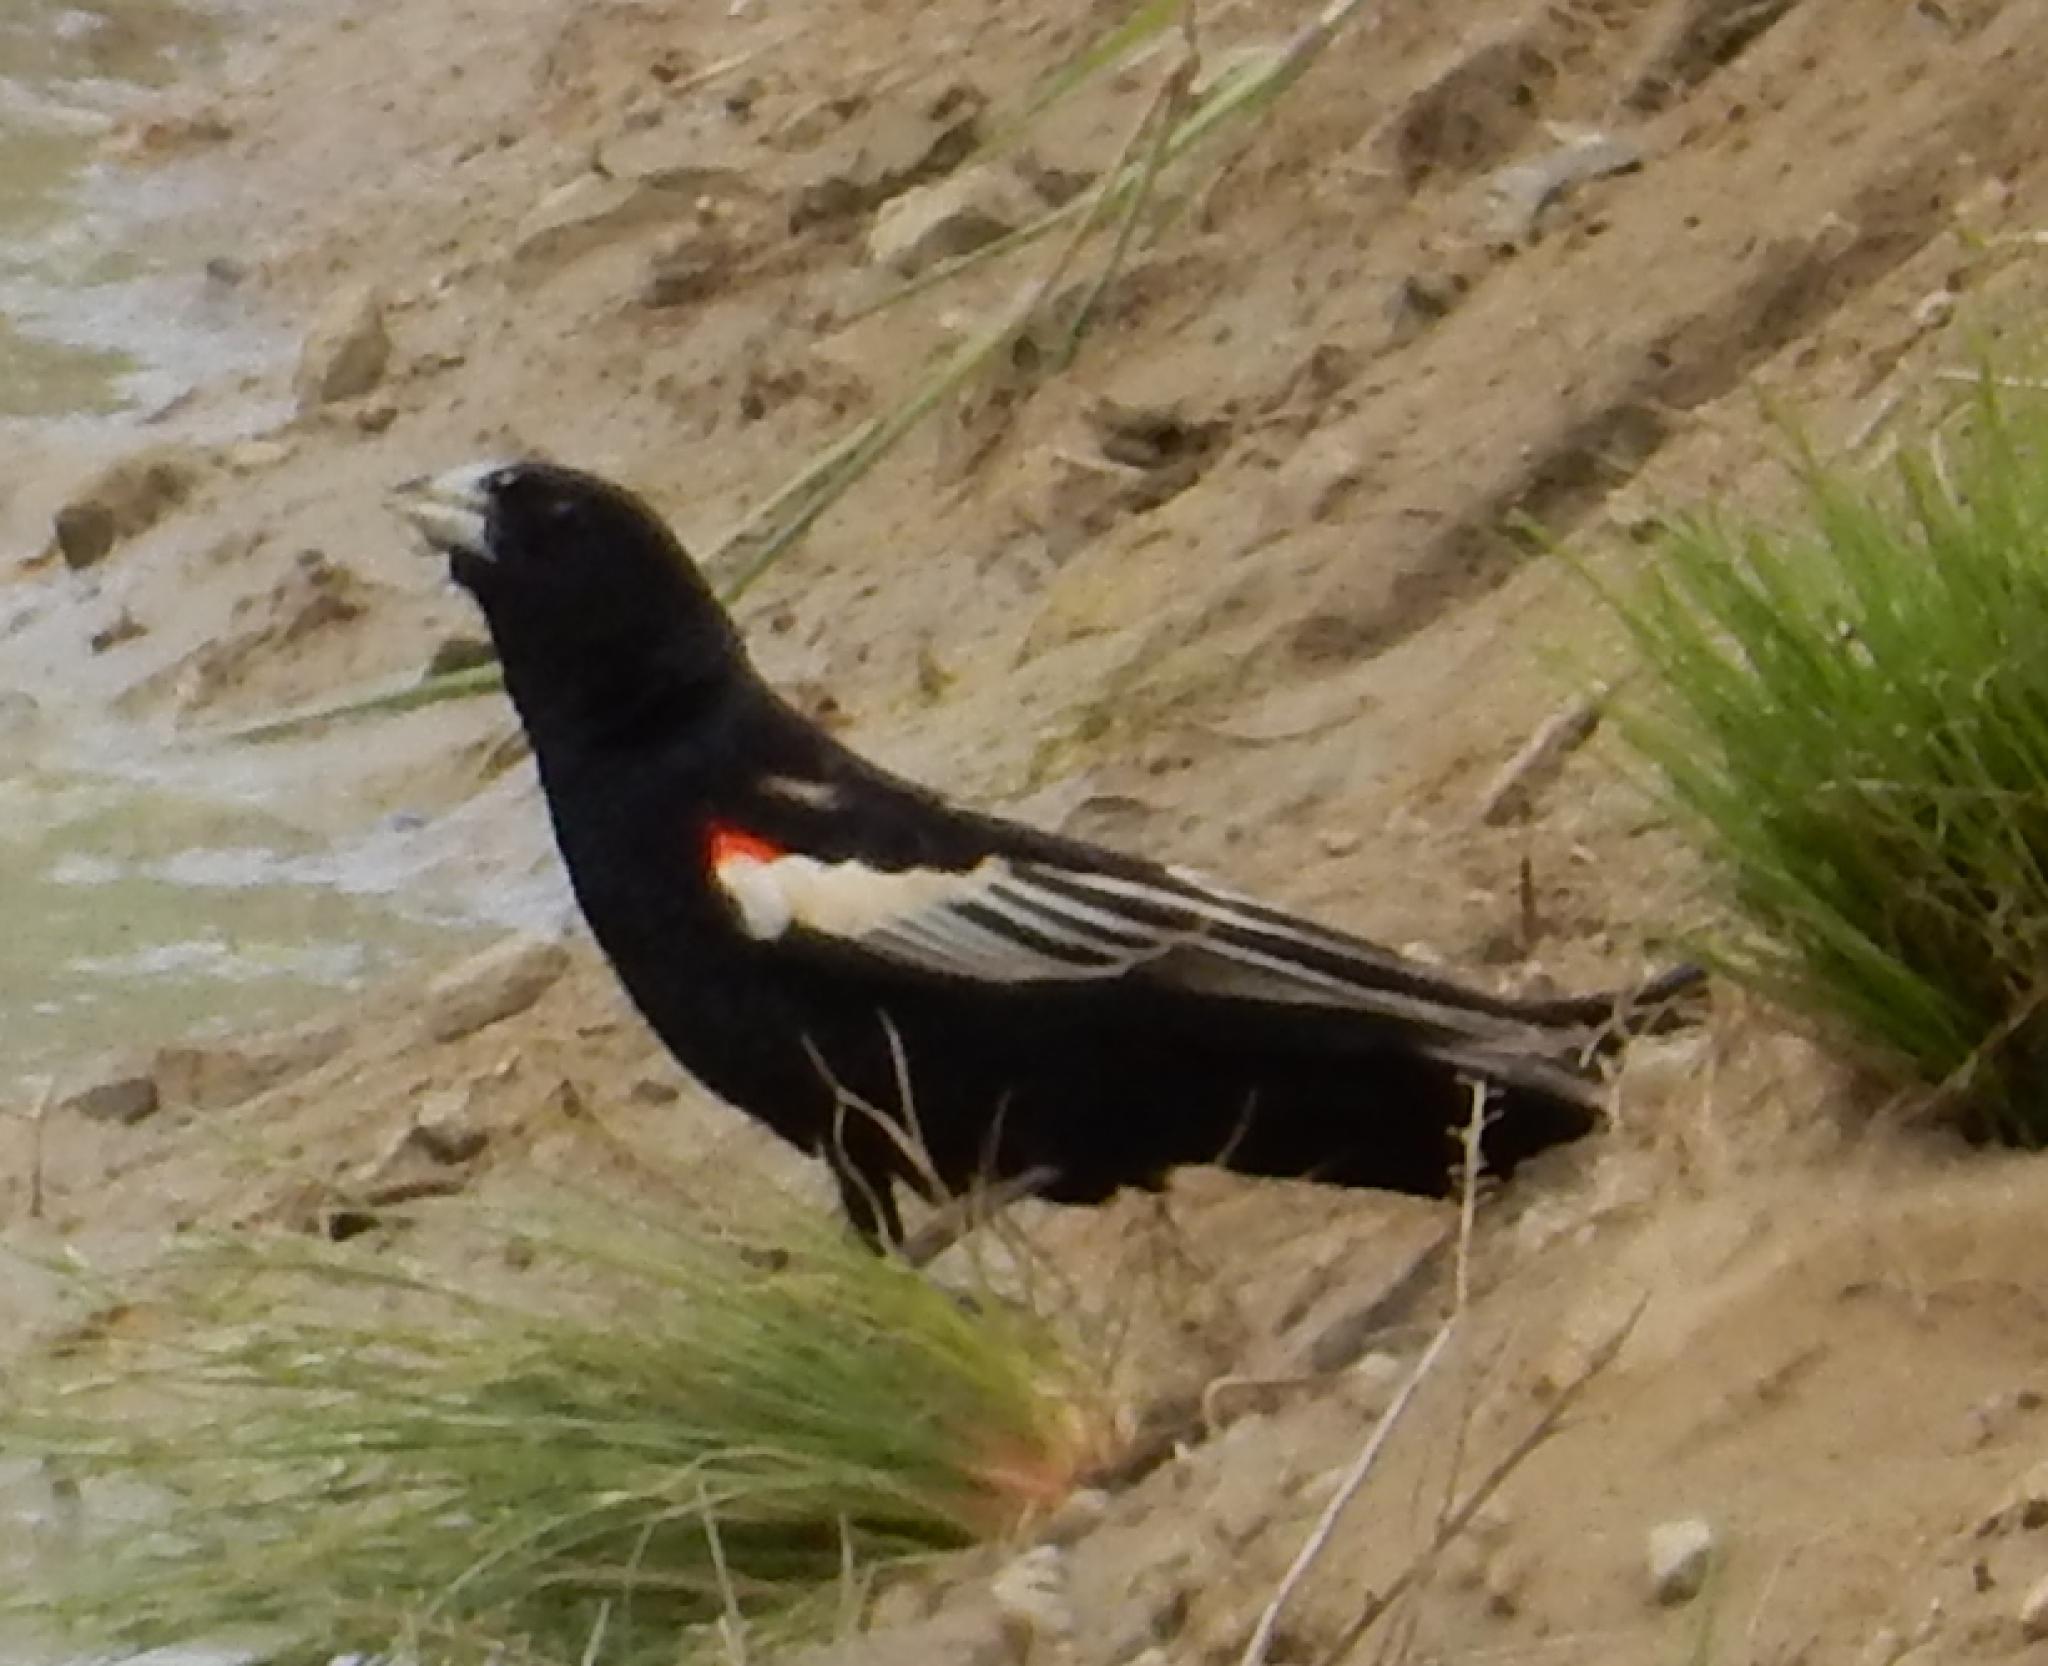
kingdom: Animalia
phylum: Chordata
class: Aves
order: Passeriformes
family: Ploceidae
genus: Euplectes
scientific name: Euplectes progne
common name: Long-tailed widowbird
